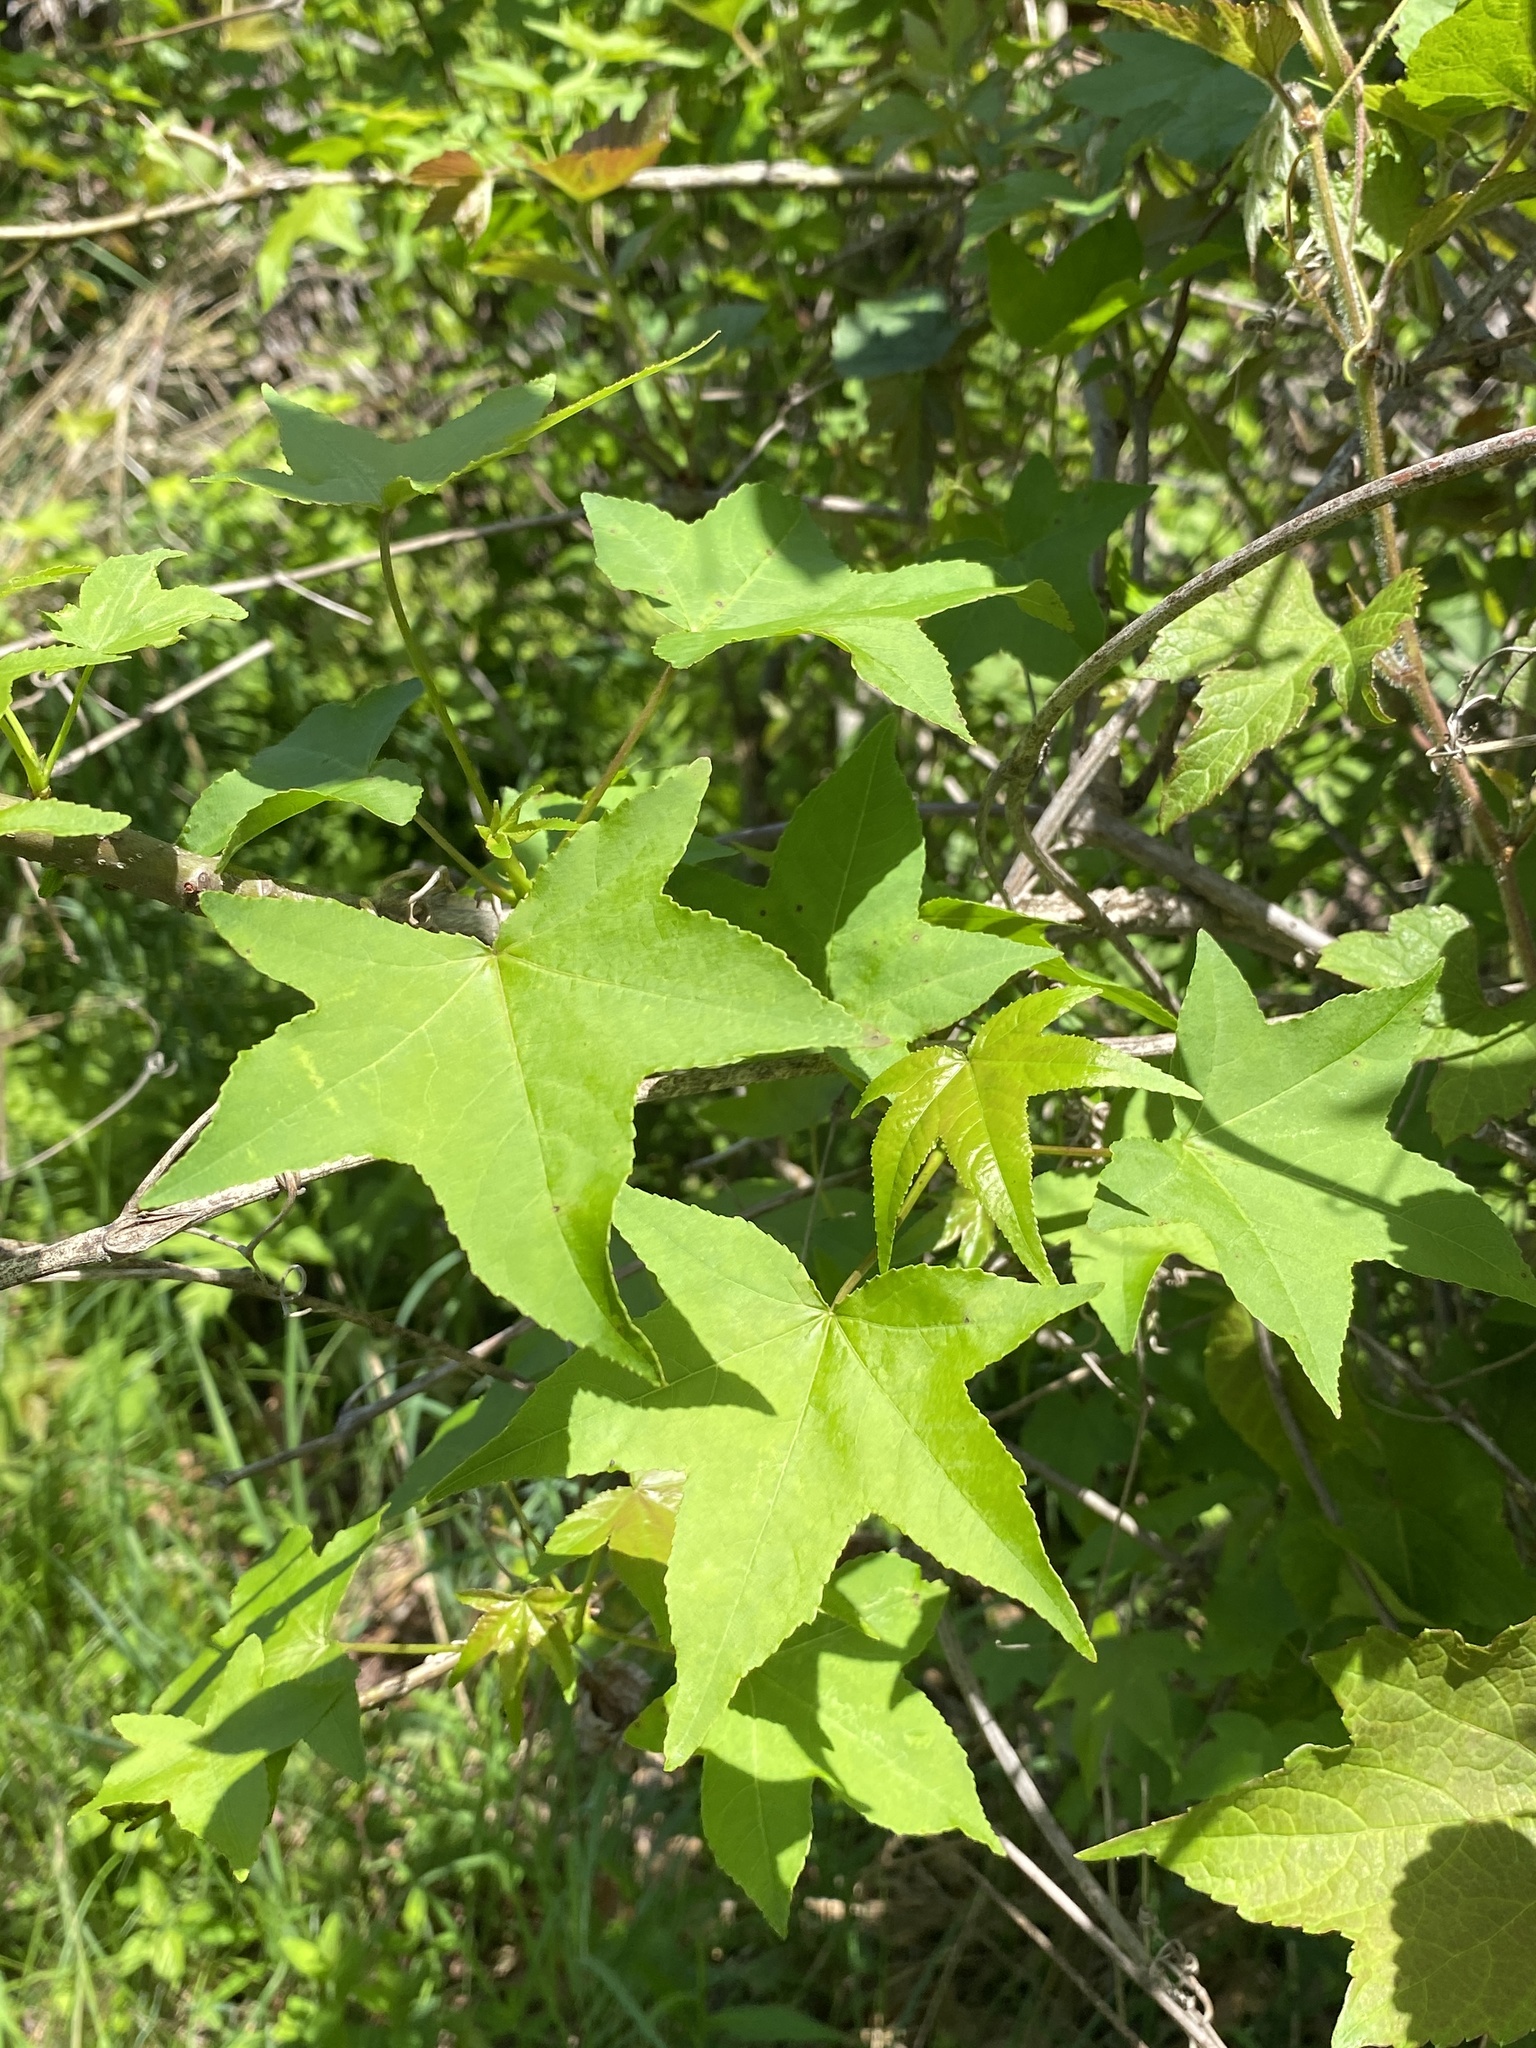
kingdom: Plantae
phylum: Tracheophyta
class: Magnoliopsida
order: Saxifragales
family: Altingiaceae
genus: Liquidambar
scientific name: Liquidambar styraciflua
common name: Sweet gum
